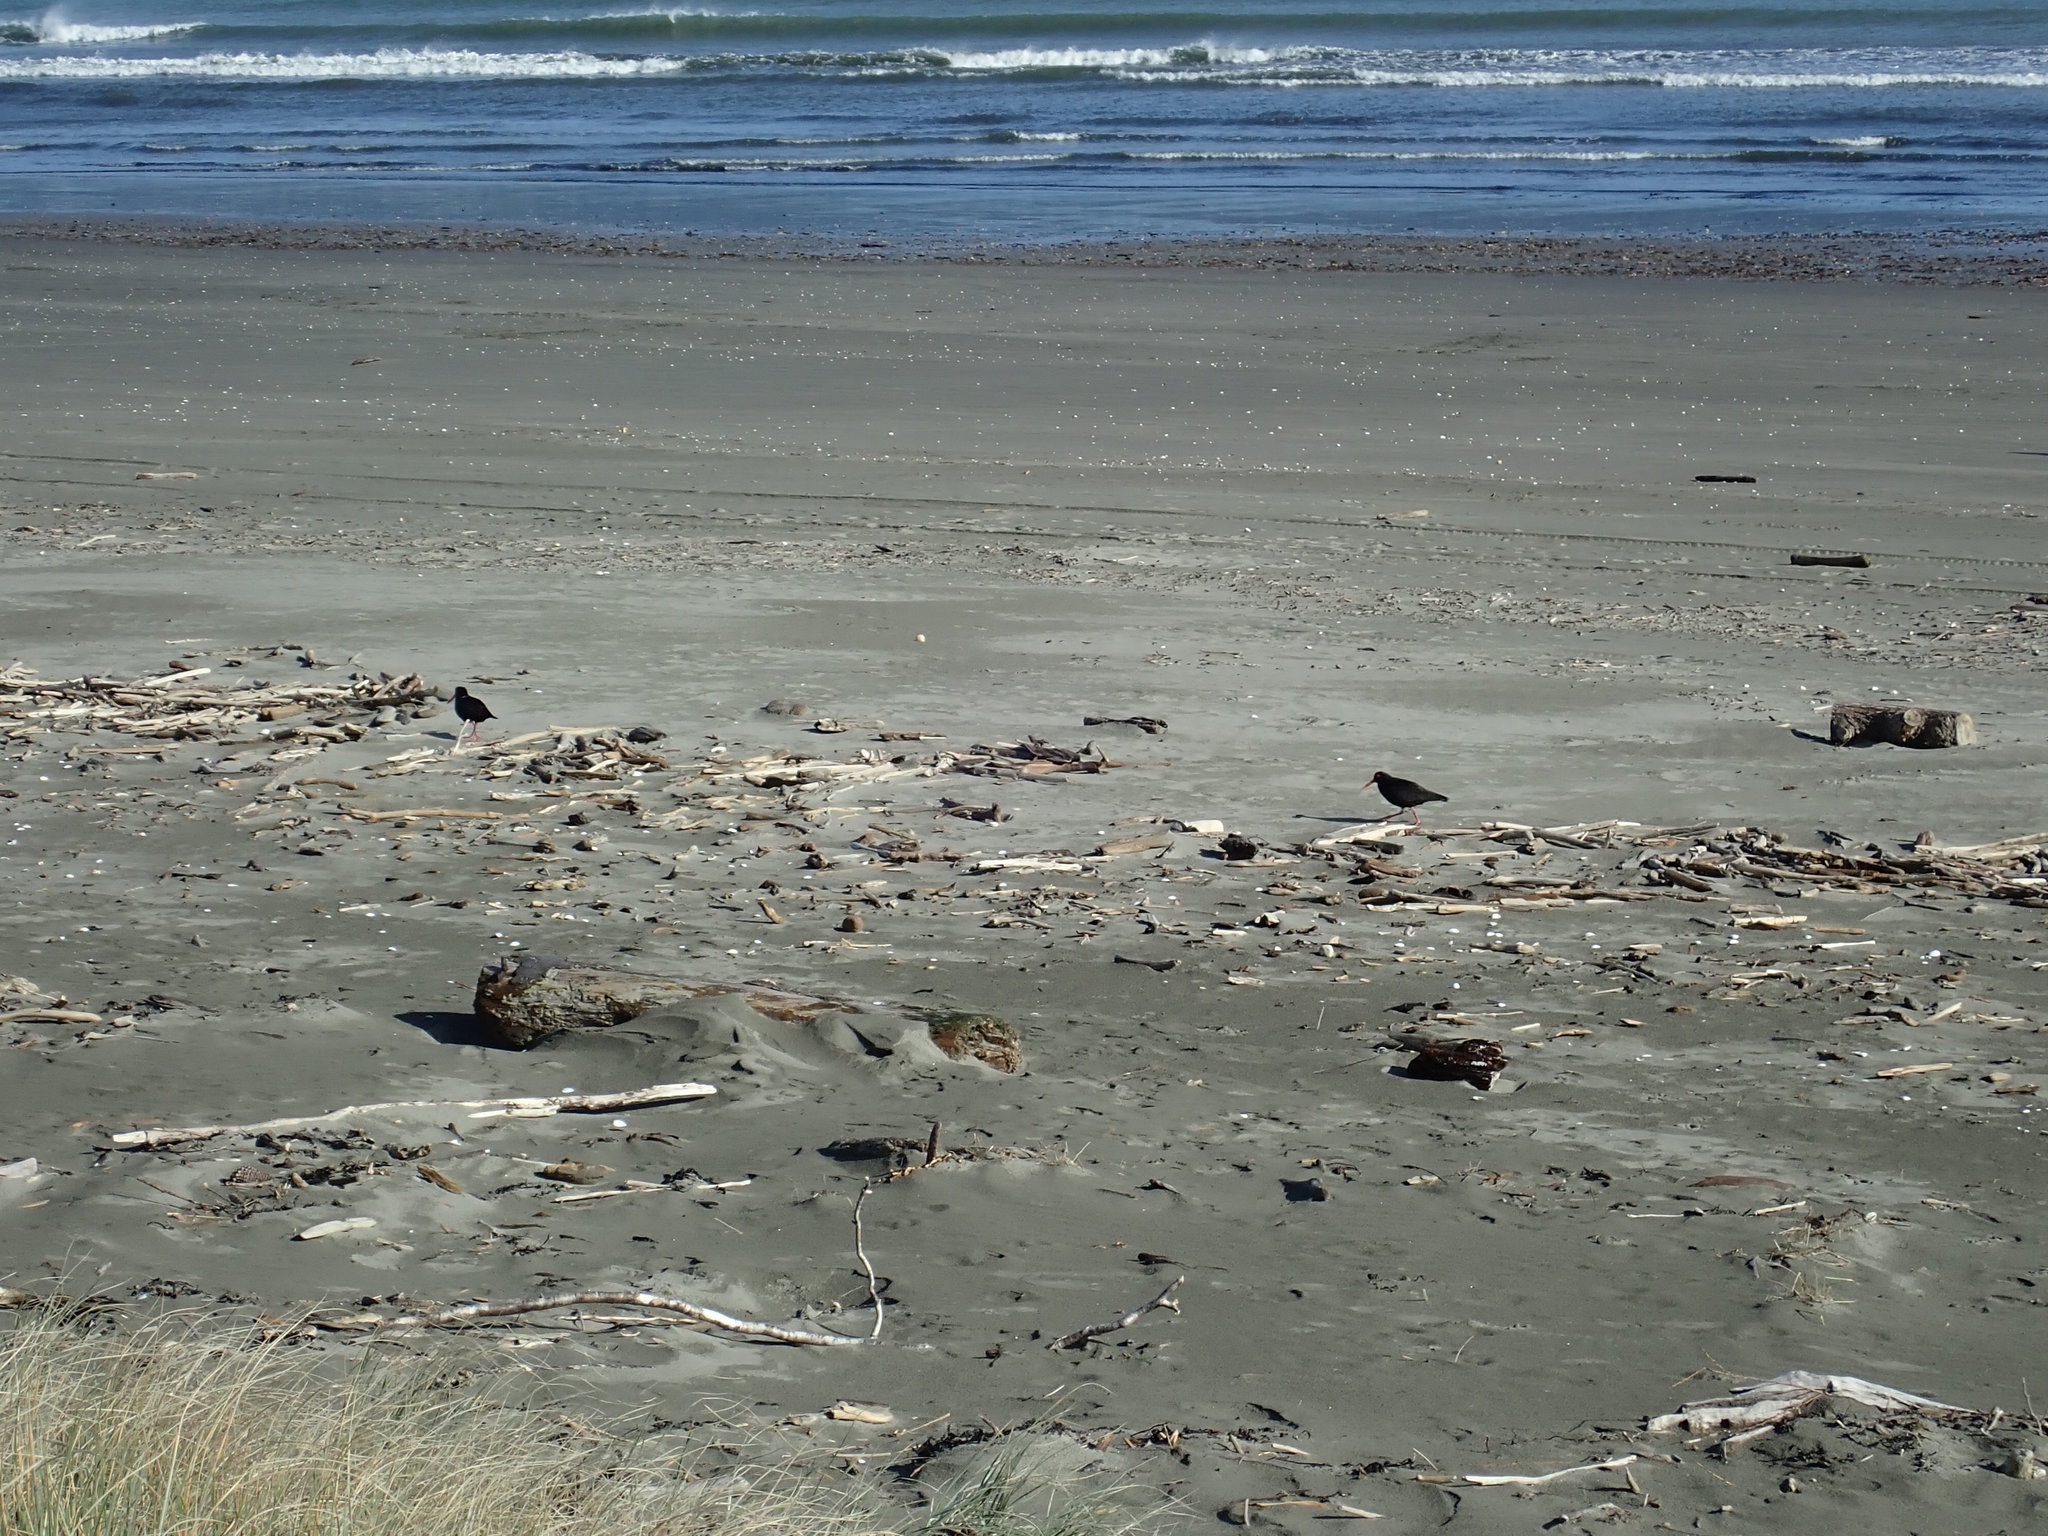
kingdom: Animalia
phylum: Chordata
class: Aves
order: Charadriiformes
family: Haematopodidae
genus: Haematopus
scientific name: Haematopus unicolor
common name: Variable oystercatcher
